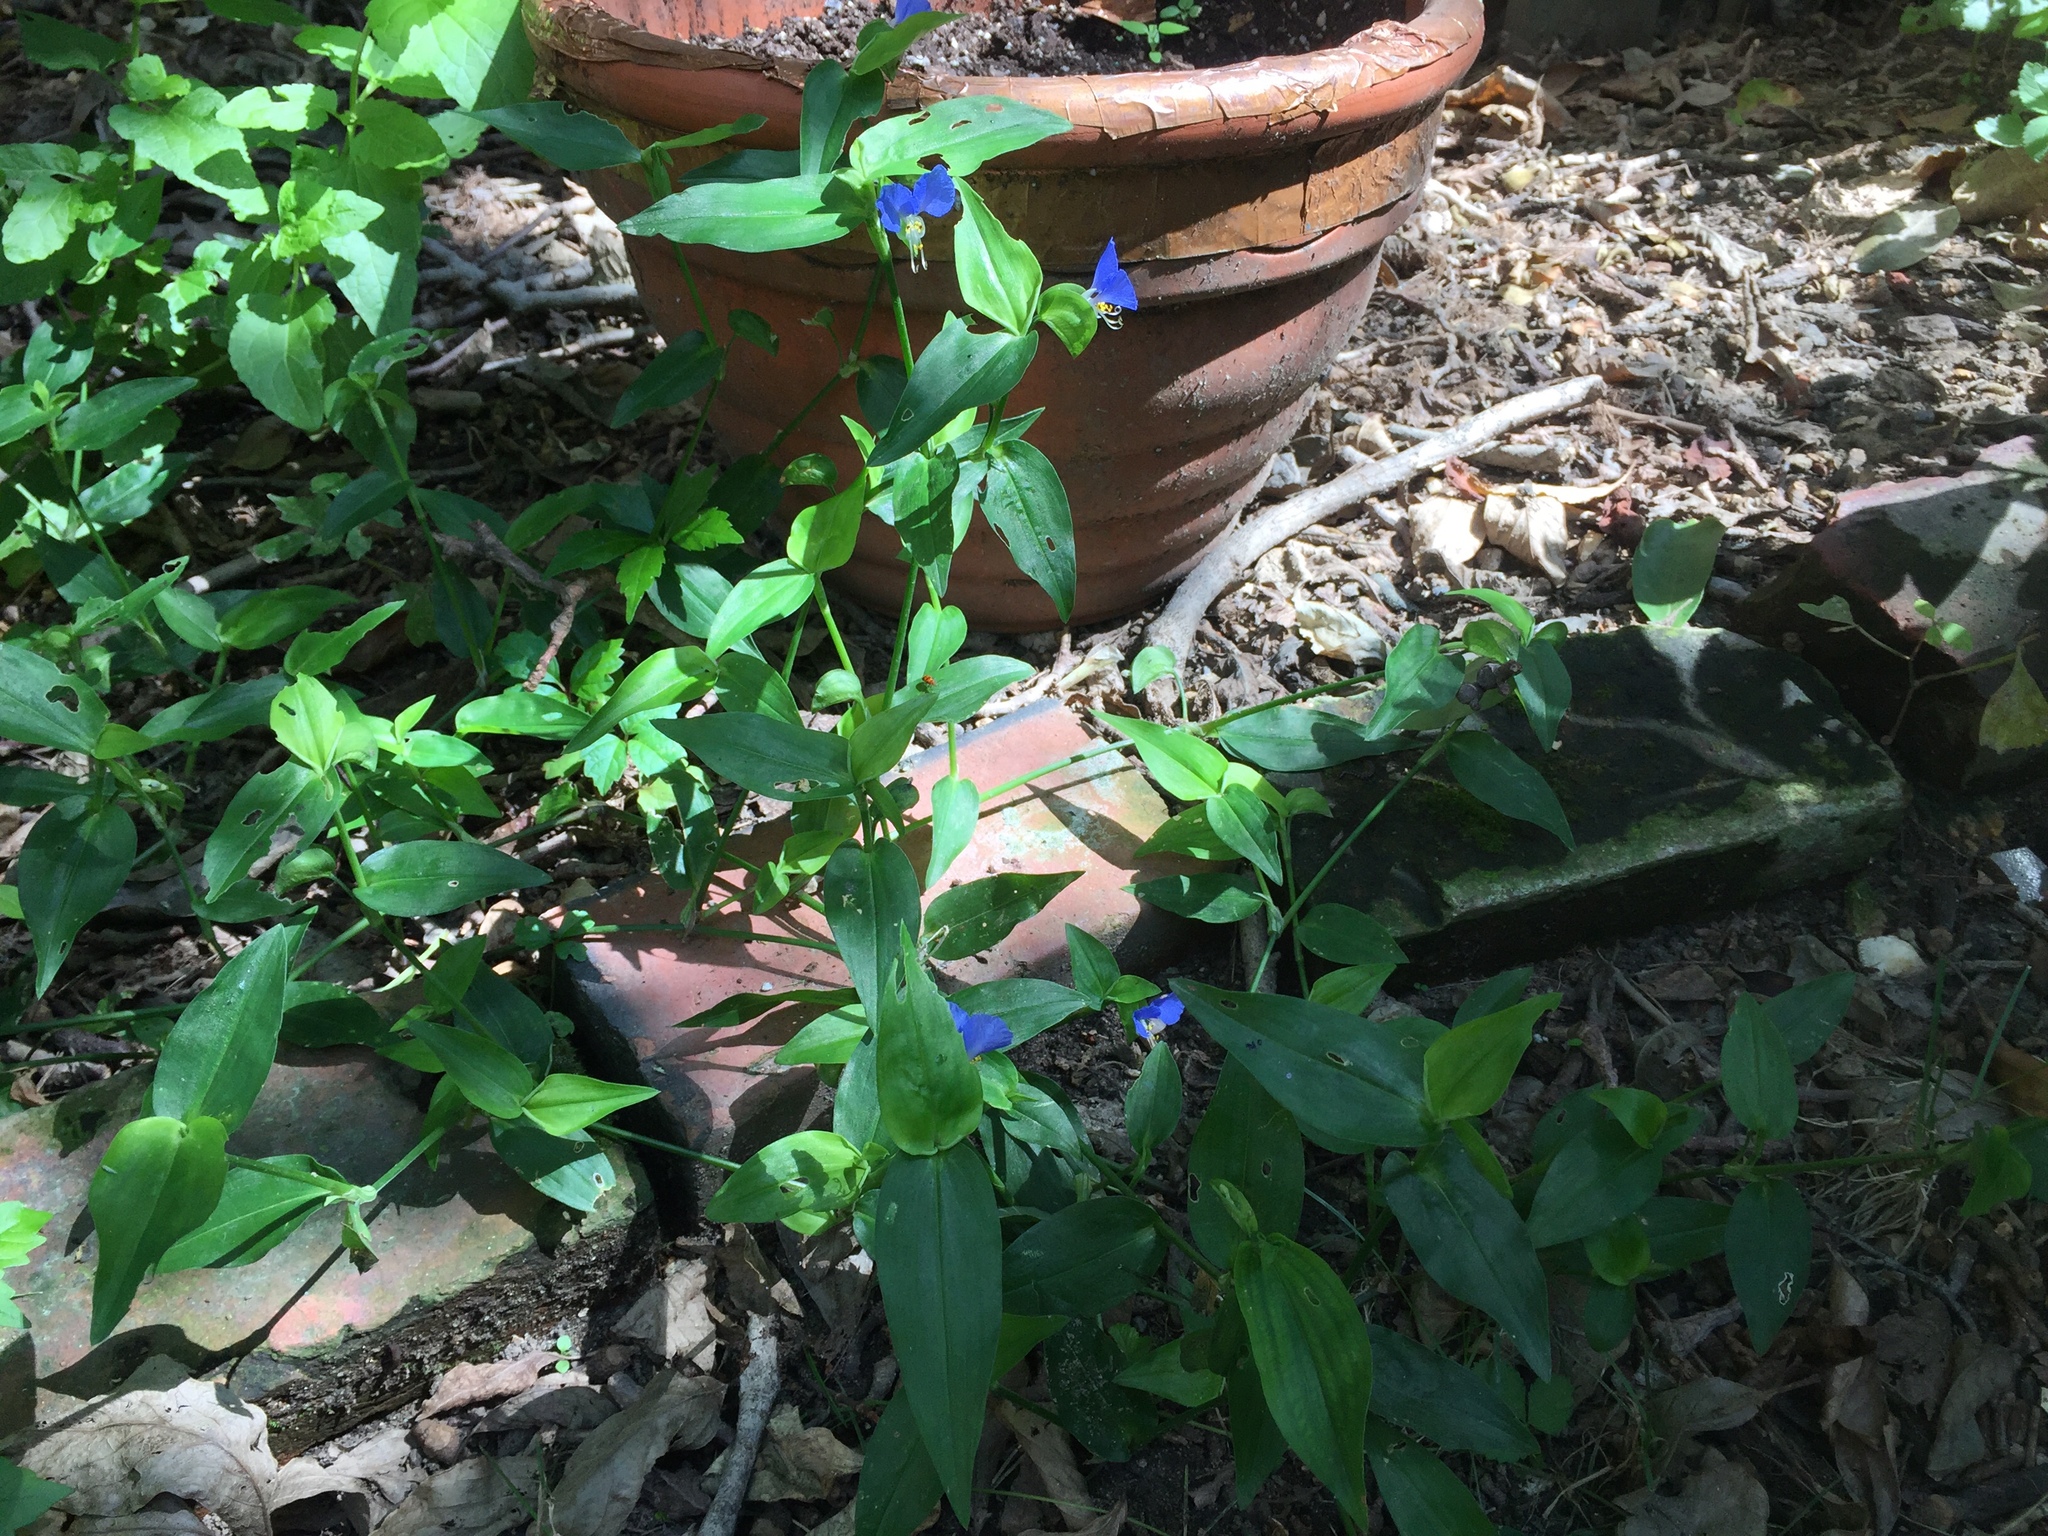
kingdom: Plantae
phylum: Tracheophyta
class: Liliopsida
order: Commelinales
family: Commelinaceae
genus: Commelina
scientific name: Commelina communis
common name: Asiatic dayflower
